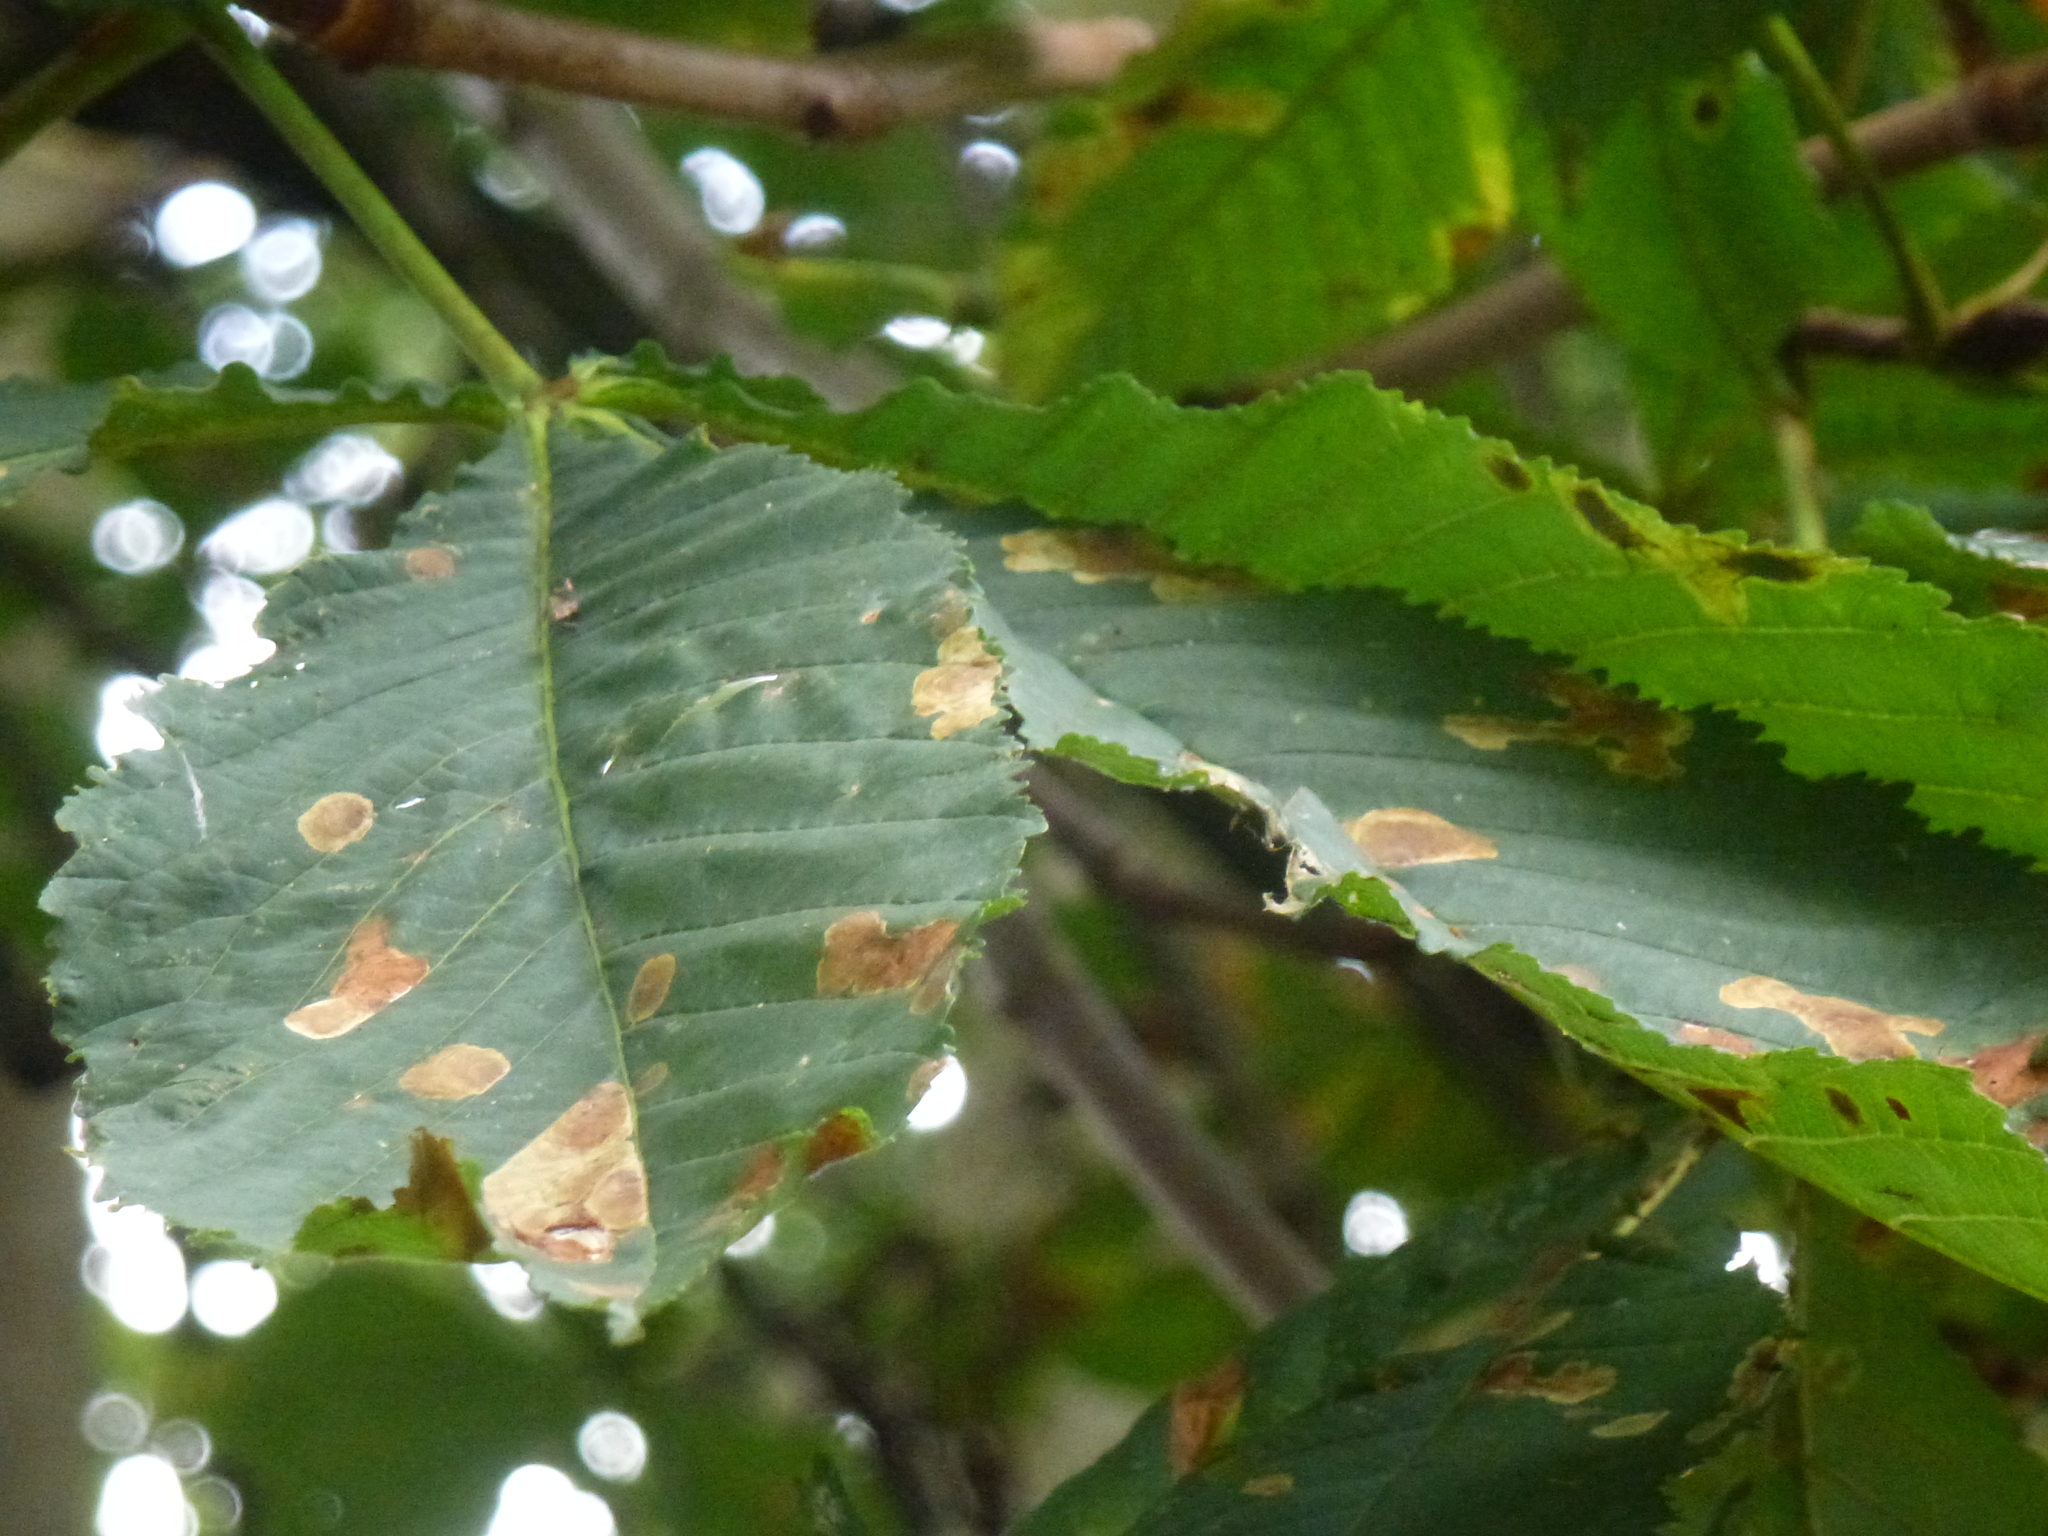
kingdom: Animalia
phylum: Arthropoda
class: Insecta
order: Lepidoptera
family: Gracillariidae
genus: Cameraria
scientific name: Cameraria ohridella
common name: Horse-chestnut leaf-miner
